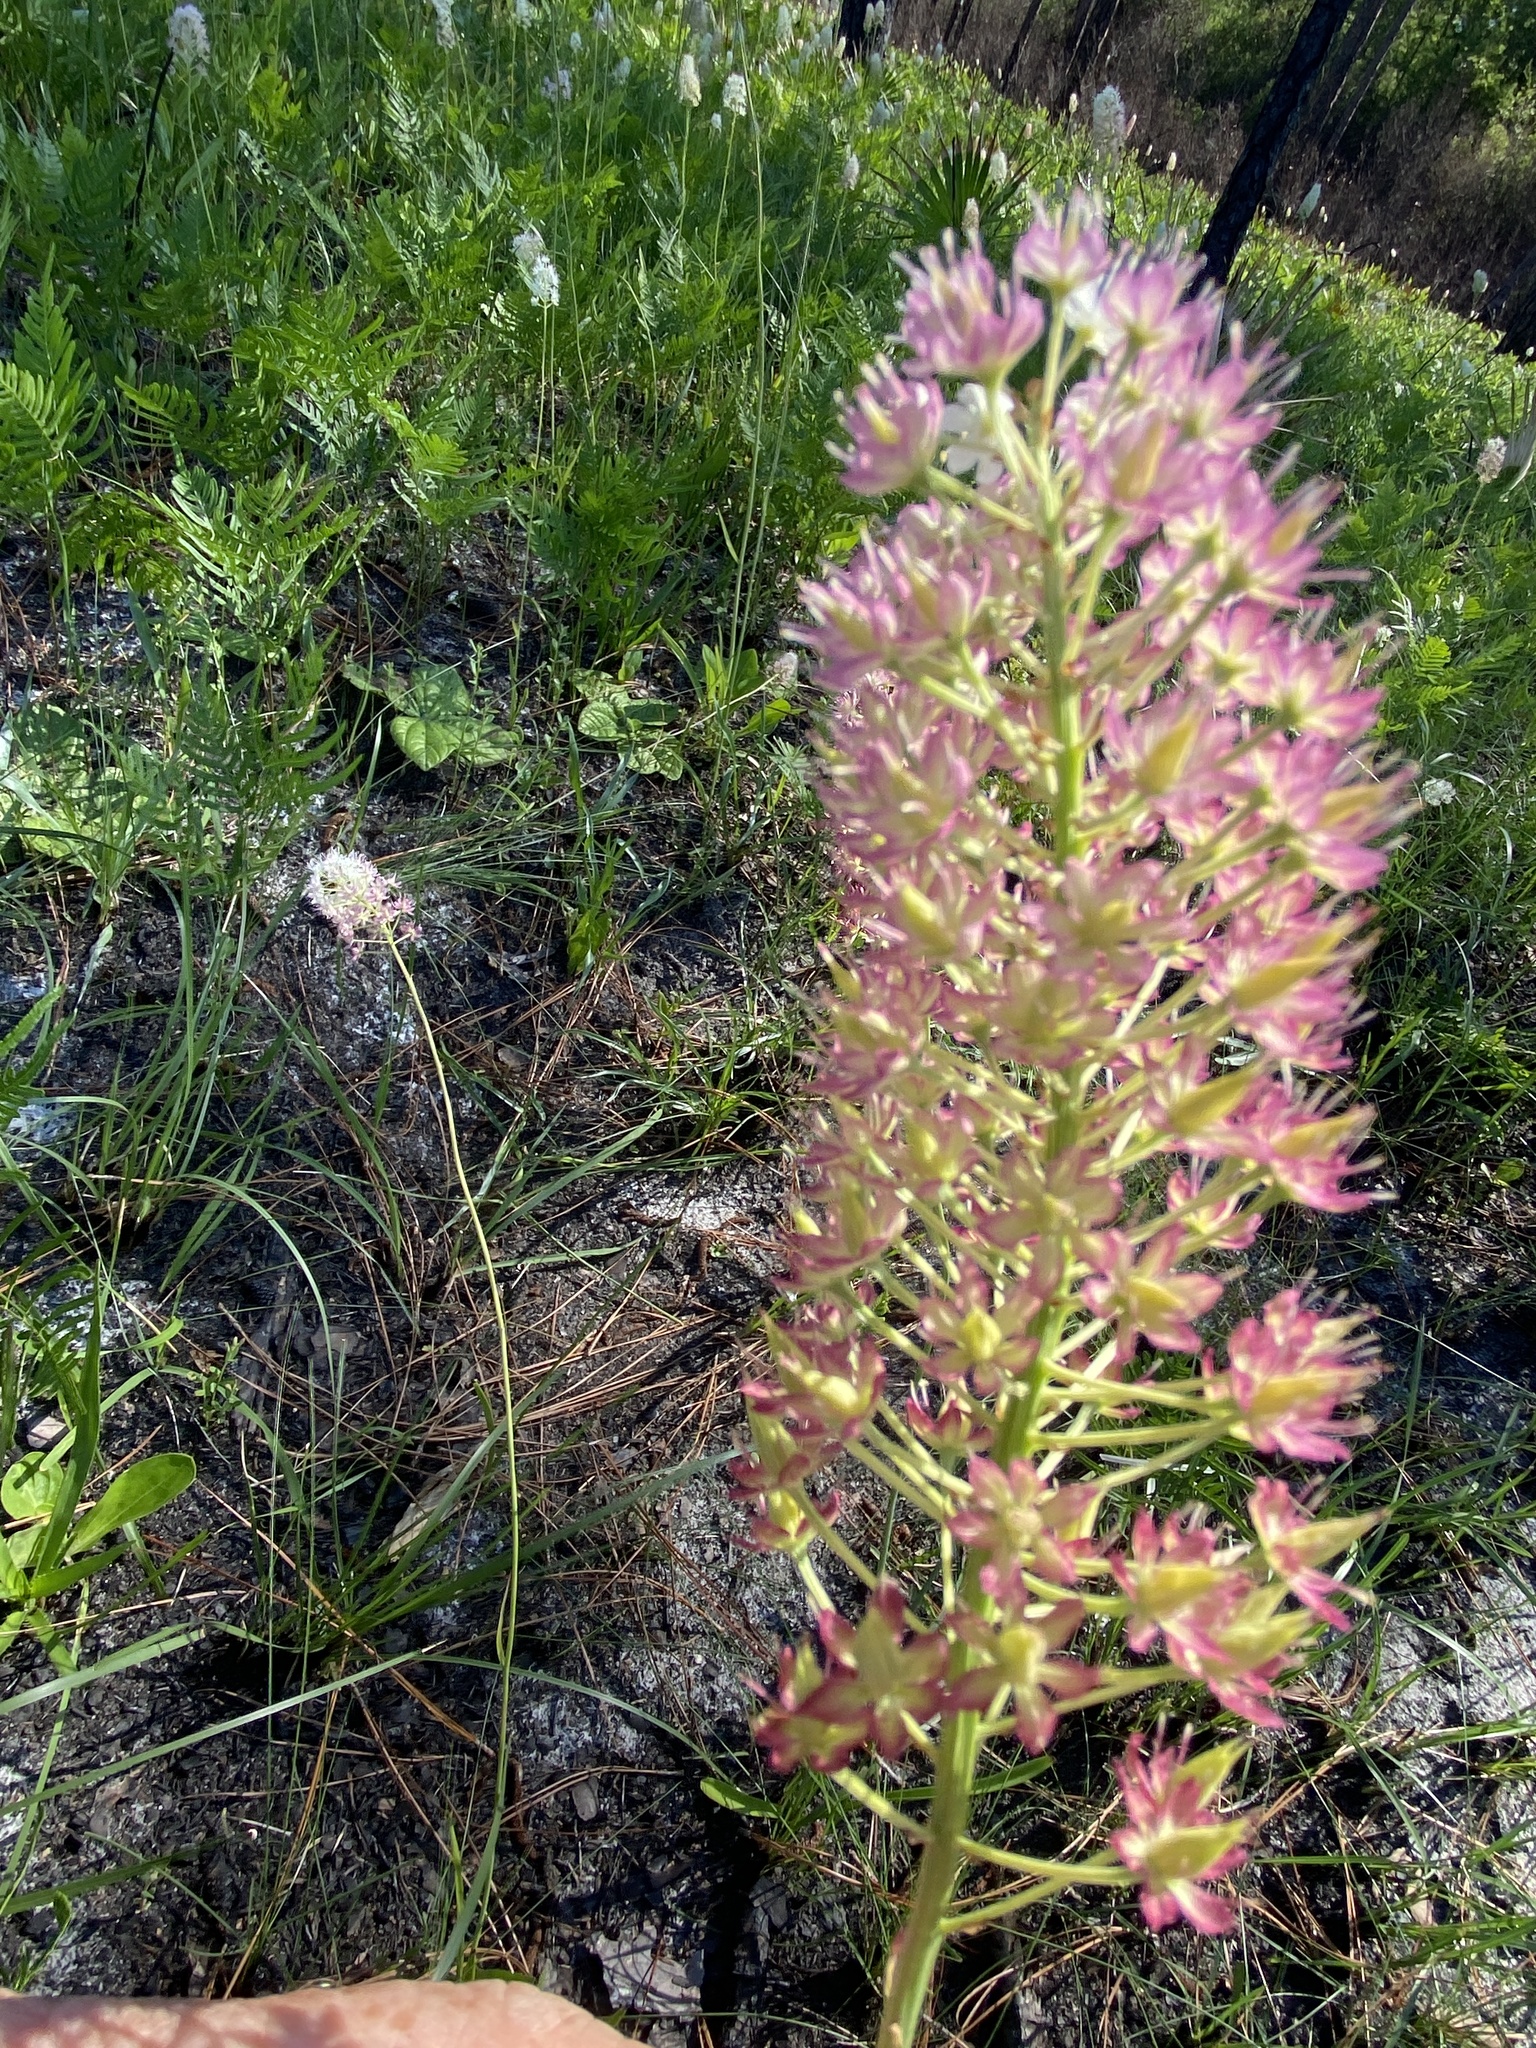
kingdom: Plantae
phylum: Tracheophyta
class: Liliopsida
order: Liliales
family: Melanthiaceae
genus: Stenanthium
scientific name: Stenanthium densum
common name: Crow-poison
